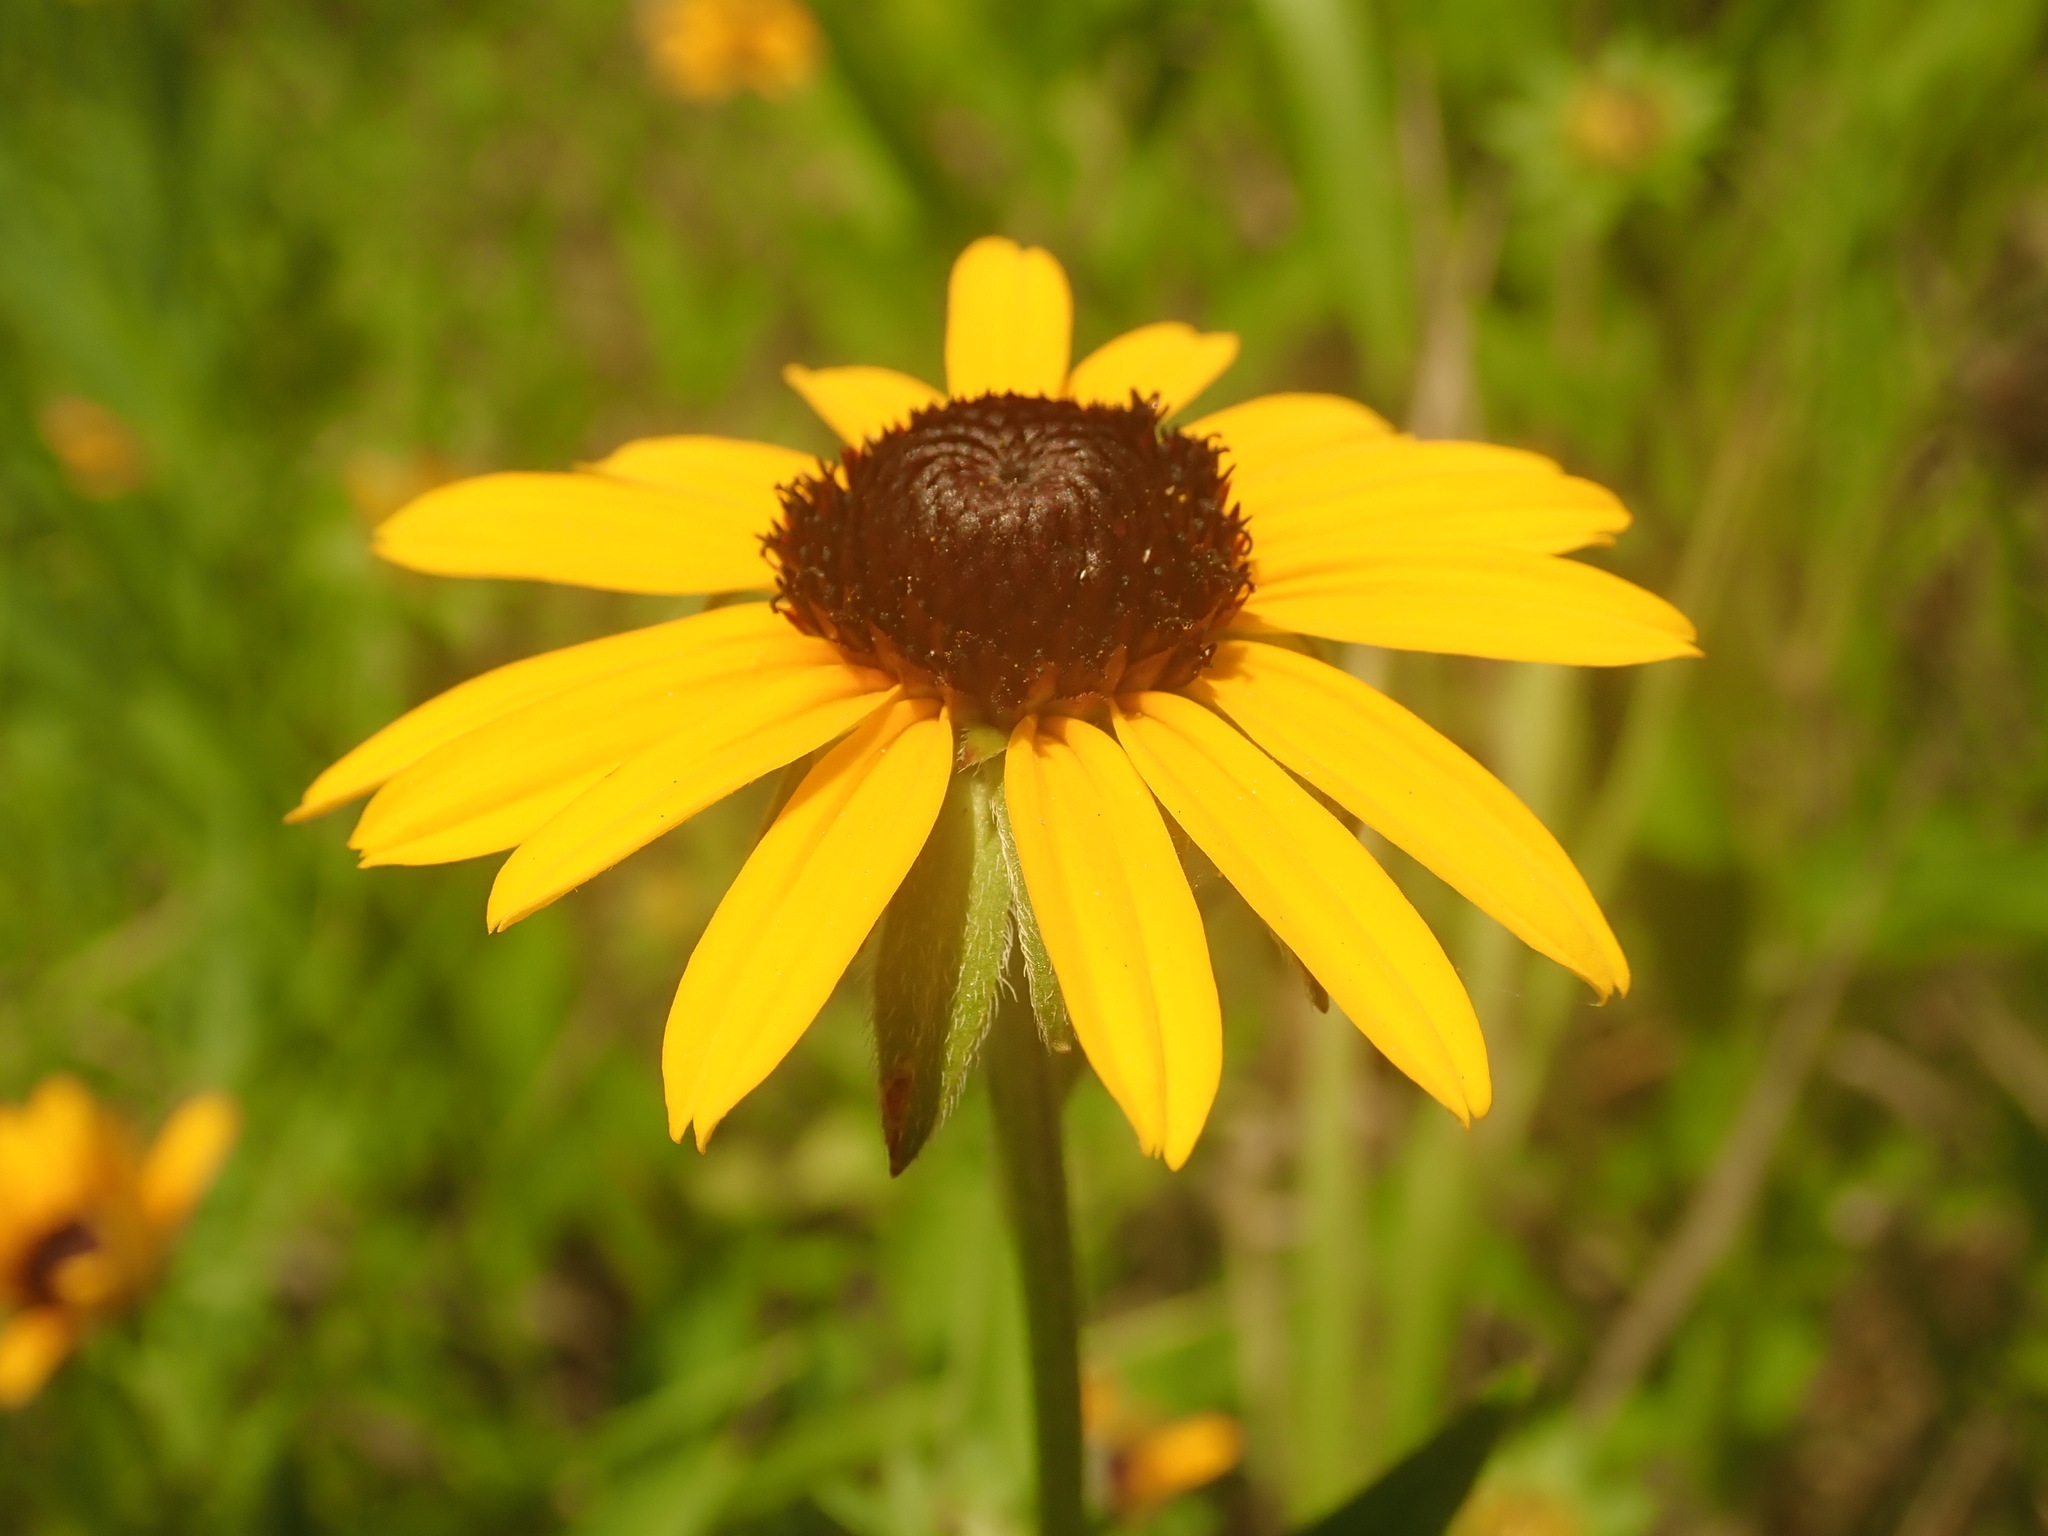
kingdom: Plantae
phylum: Tracheophyta
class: Magnoliopsida
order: Asterales
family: Asteraceae
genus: Rudbeckia
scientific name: Rudbeckia hirta
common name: Black-eyed-susan
